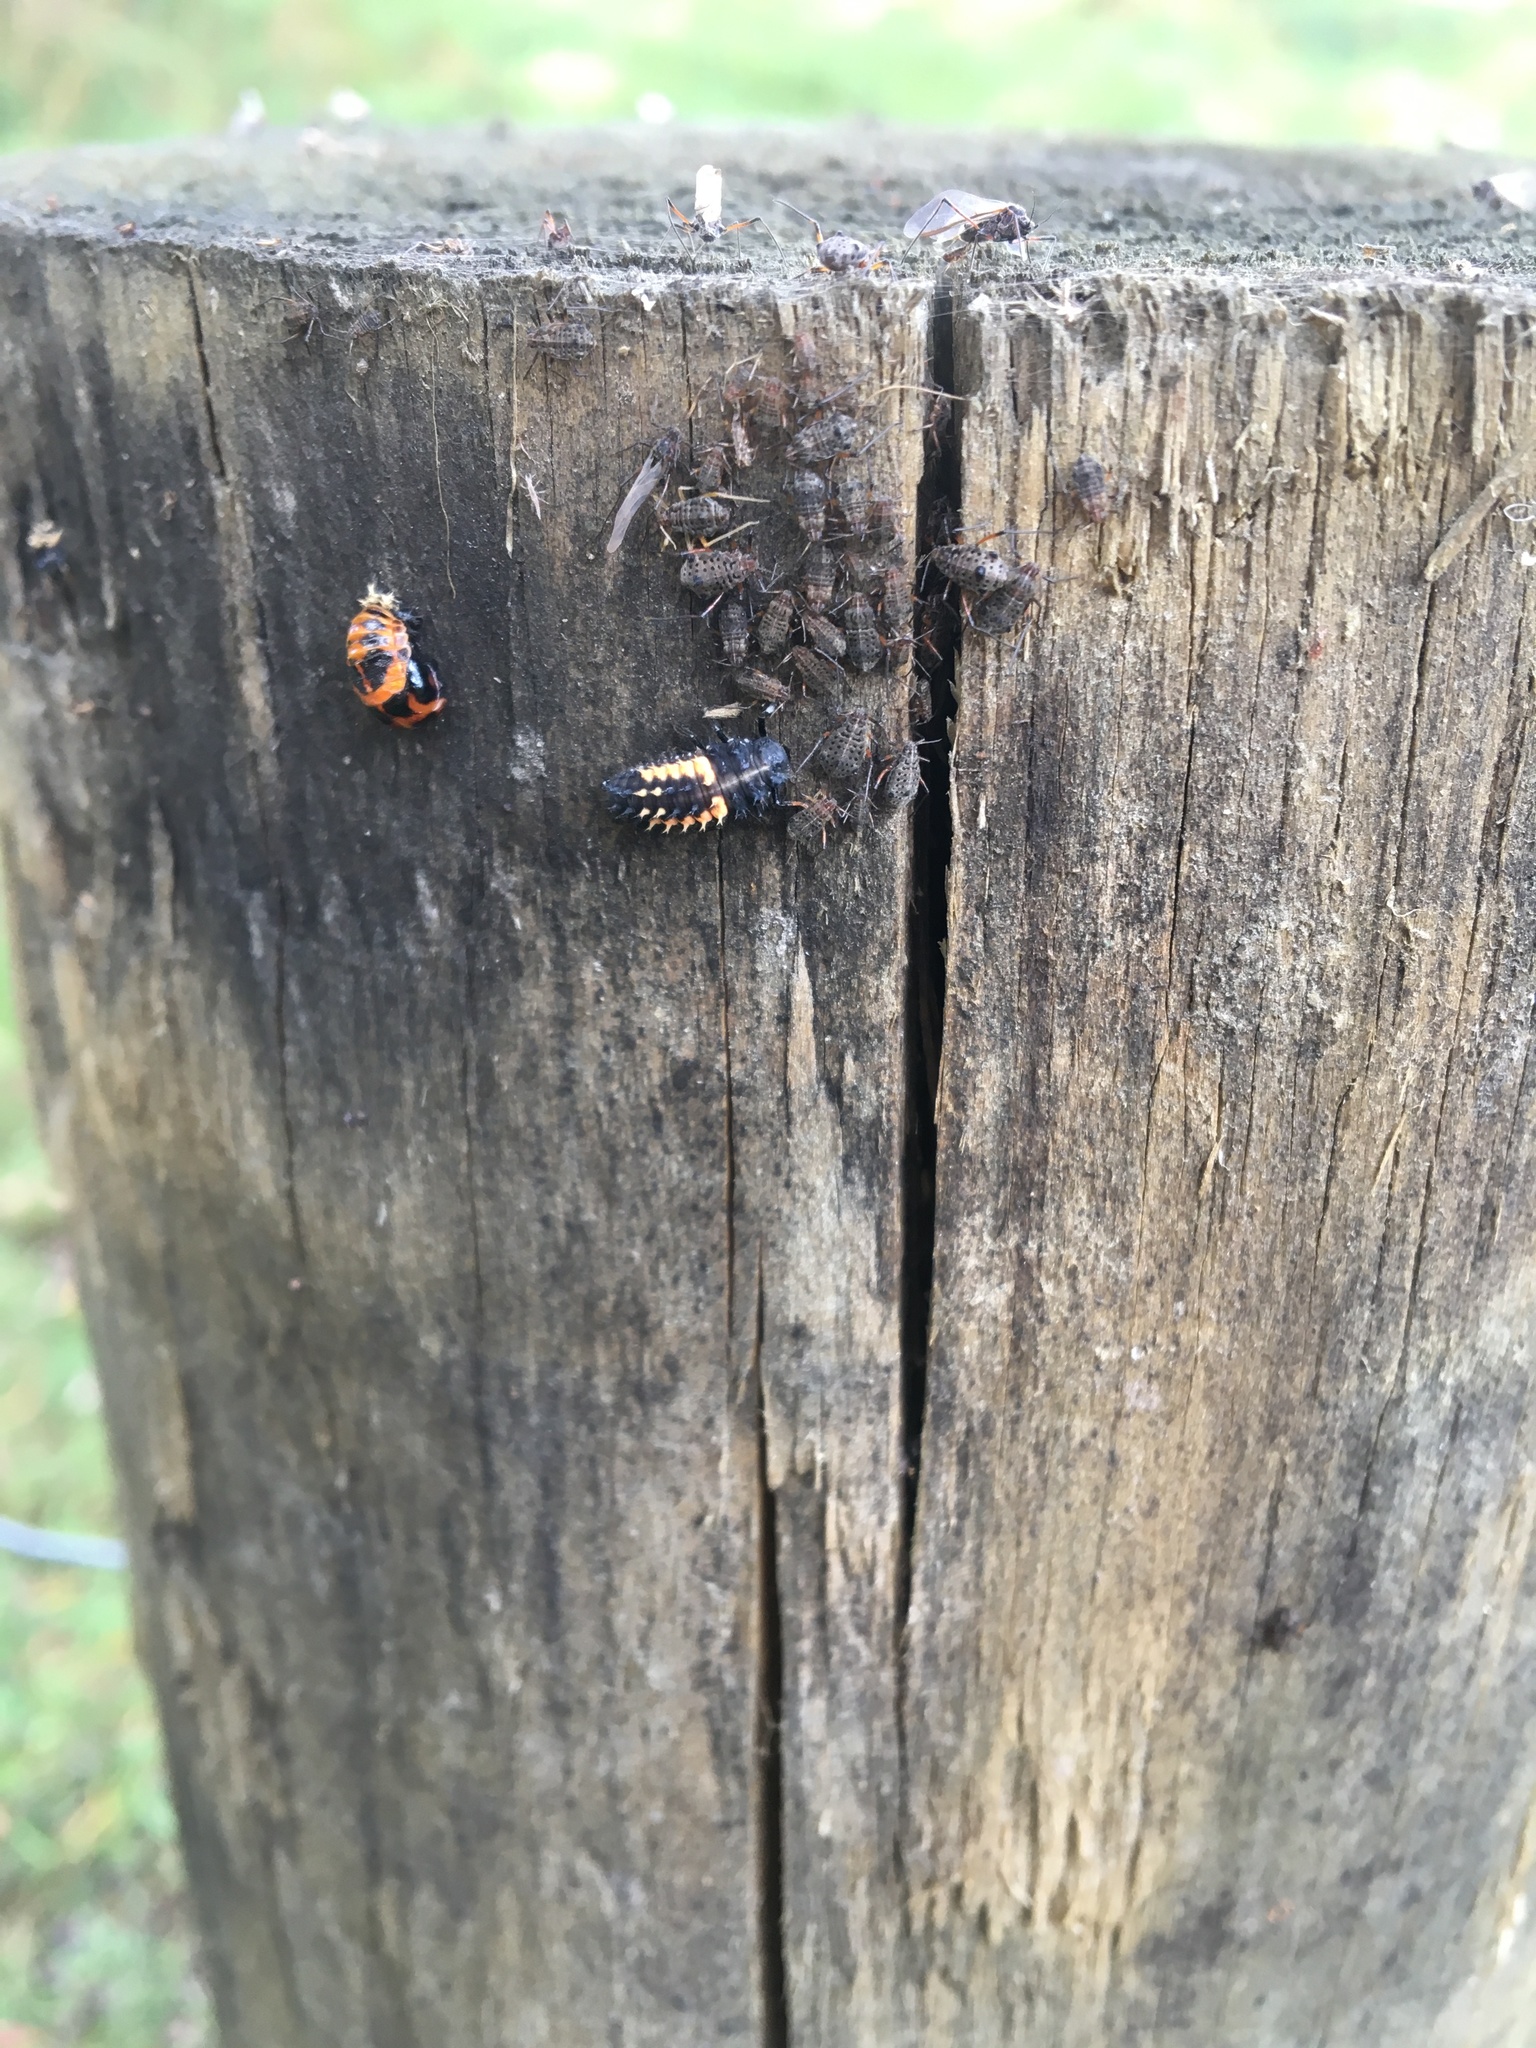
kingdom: Animalia
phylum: Arthropoda
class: Insecta
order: Coleoptera
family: Coccinellidae
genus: Harmonia
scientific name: Harmonia axyridis
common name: Harlequin ladybird
